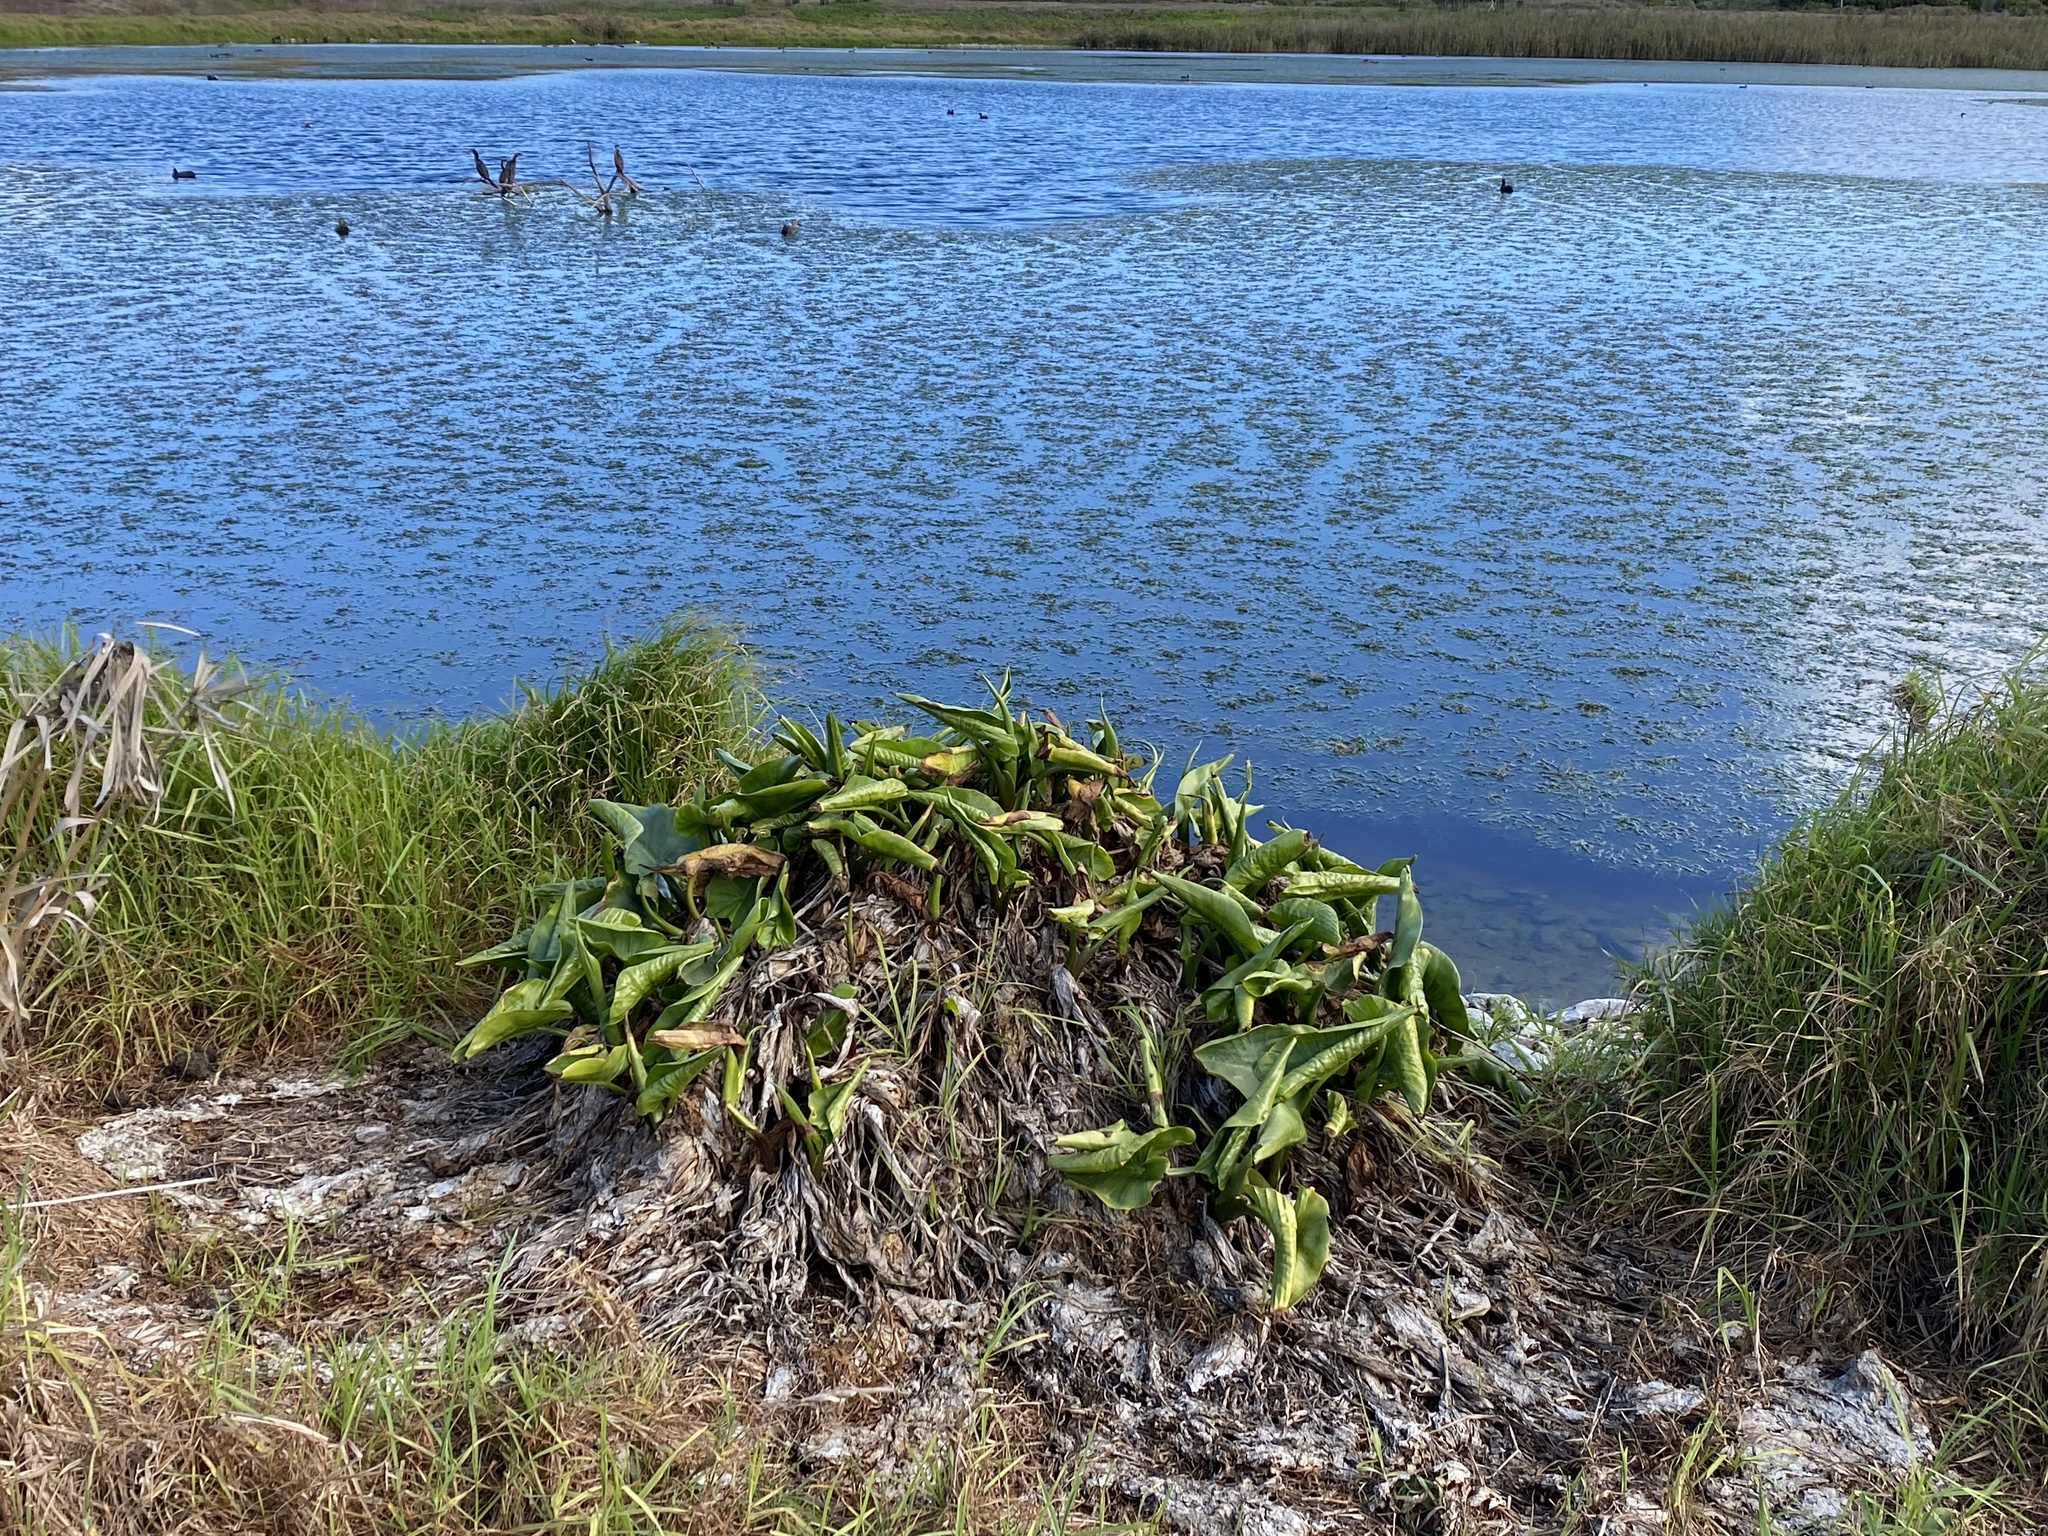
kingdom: Plantae
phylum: Tracheophyta
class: Liliopsida
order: Alismatales
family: Araceae
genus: Zantedeschia
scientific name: Zantedeschia aethiopica
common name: Altar-lily
